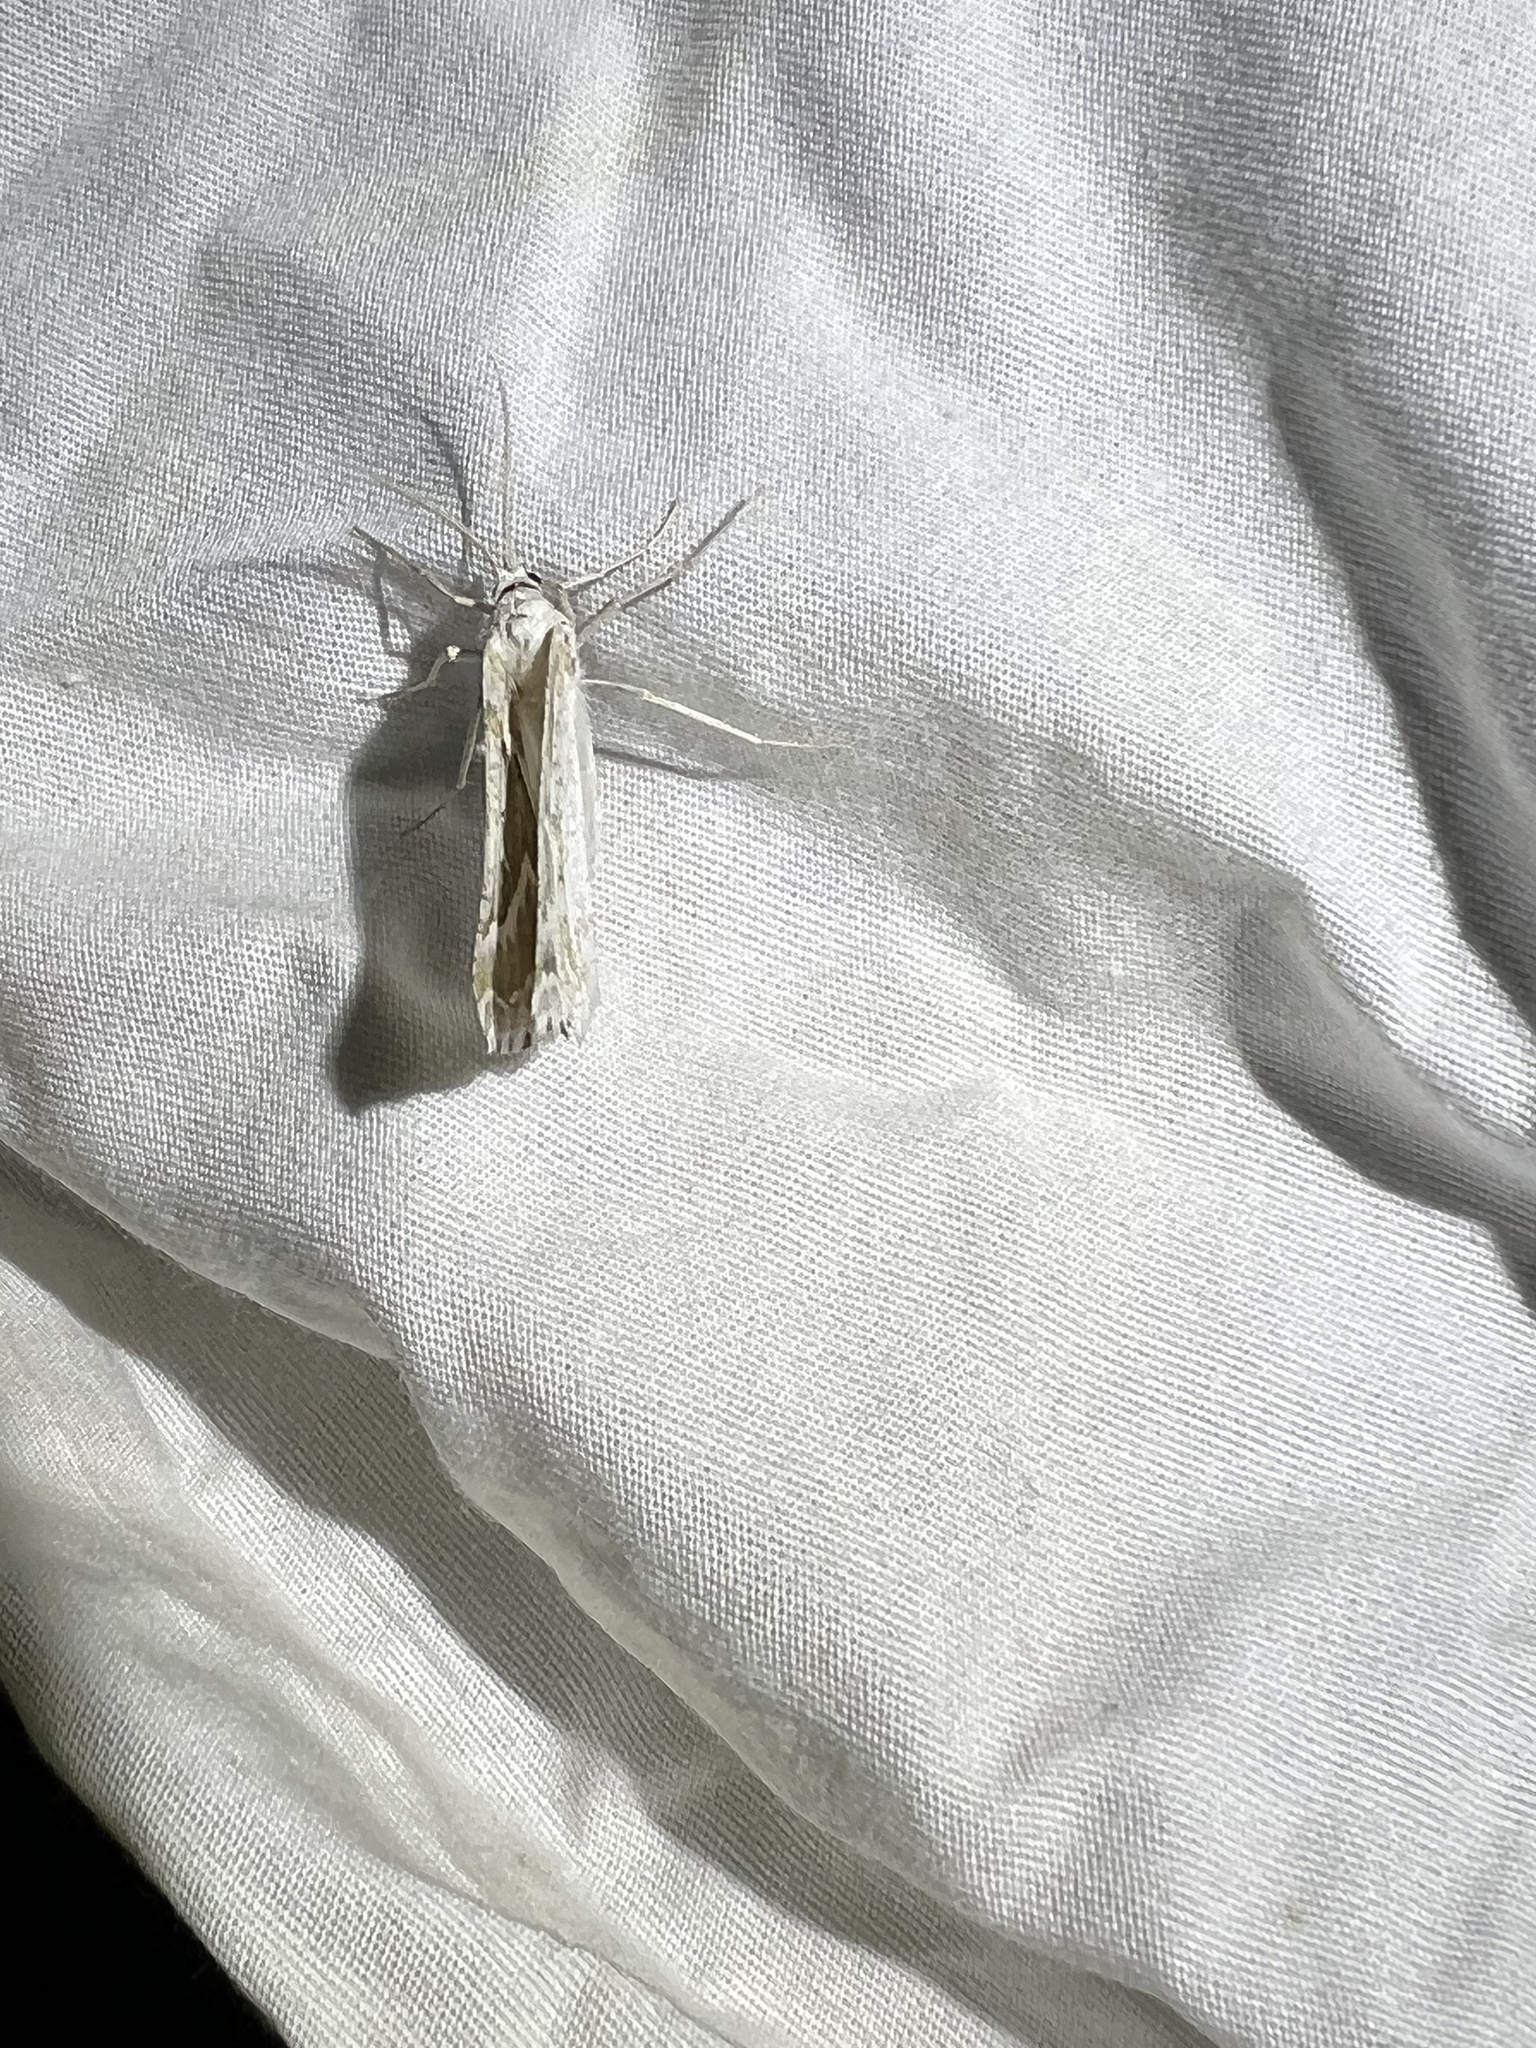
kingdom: Animalia
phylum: Arthropoda
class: Insecta
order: Lepidoptera
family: Geometridae
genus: Plataea
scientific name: Plataea trilinearia
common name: Sagebrush girdle moth
